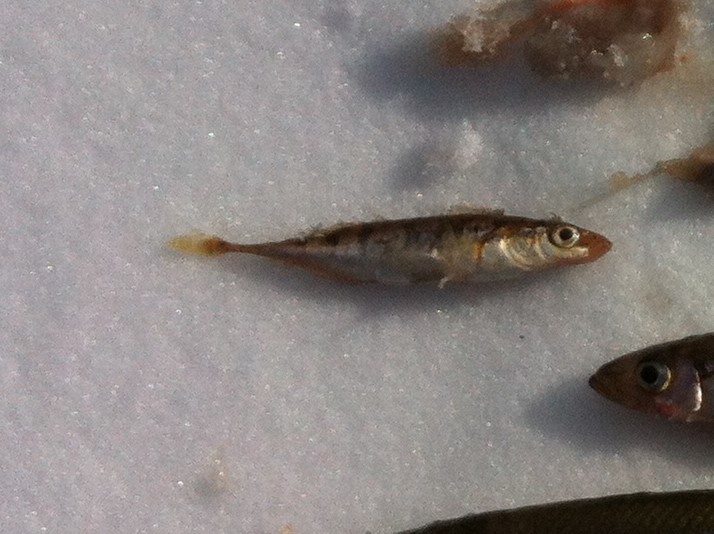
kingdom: Animalia
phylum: Chordata
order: Gasterosteiformes
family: Gasterosteidae
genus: Pungitius
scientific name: Pungitius pungitius
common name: Nine-spined stickleback
